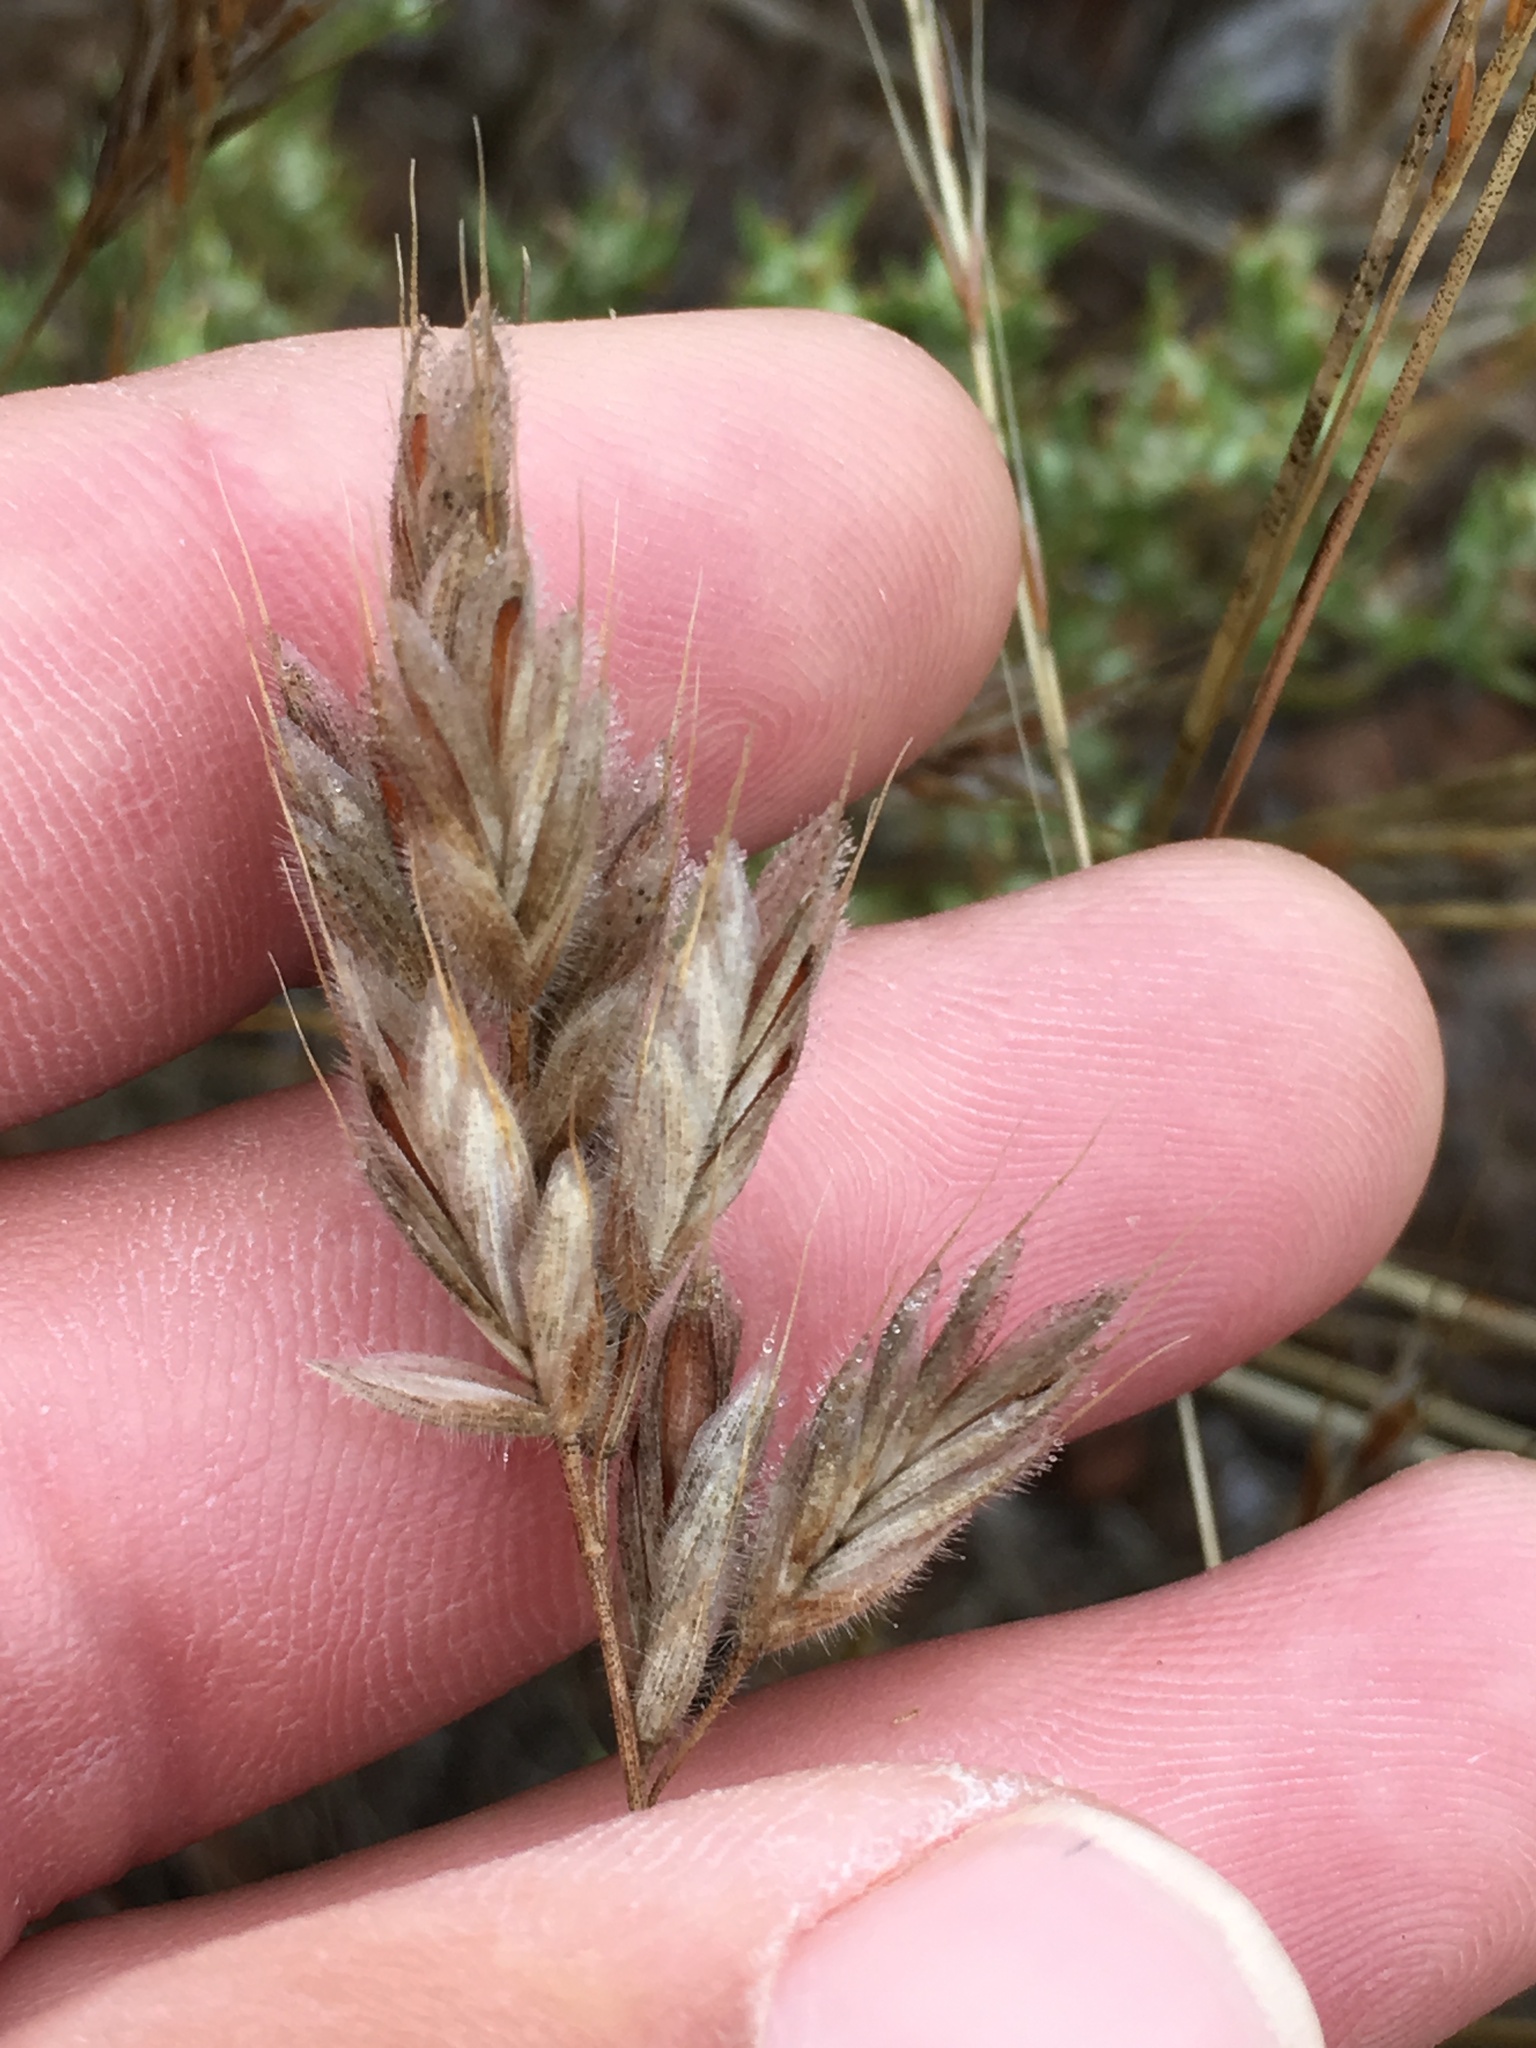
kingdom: Plantae
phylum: Tracheophyta
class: Liliopsida
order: Poales
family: Poaceae
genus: Bromus
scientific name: Bromus hordeaceus
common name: Soft brome
